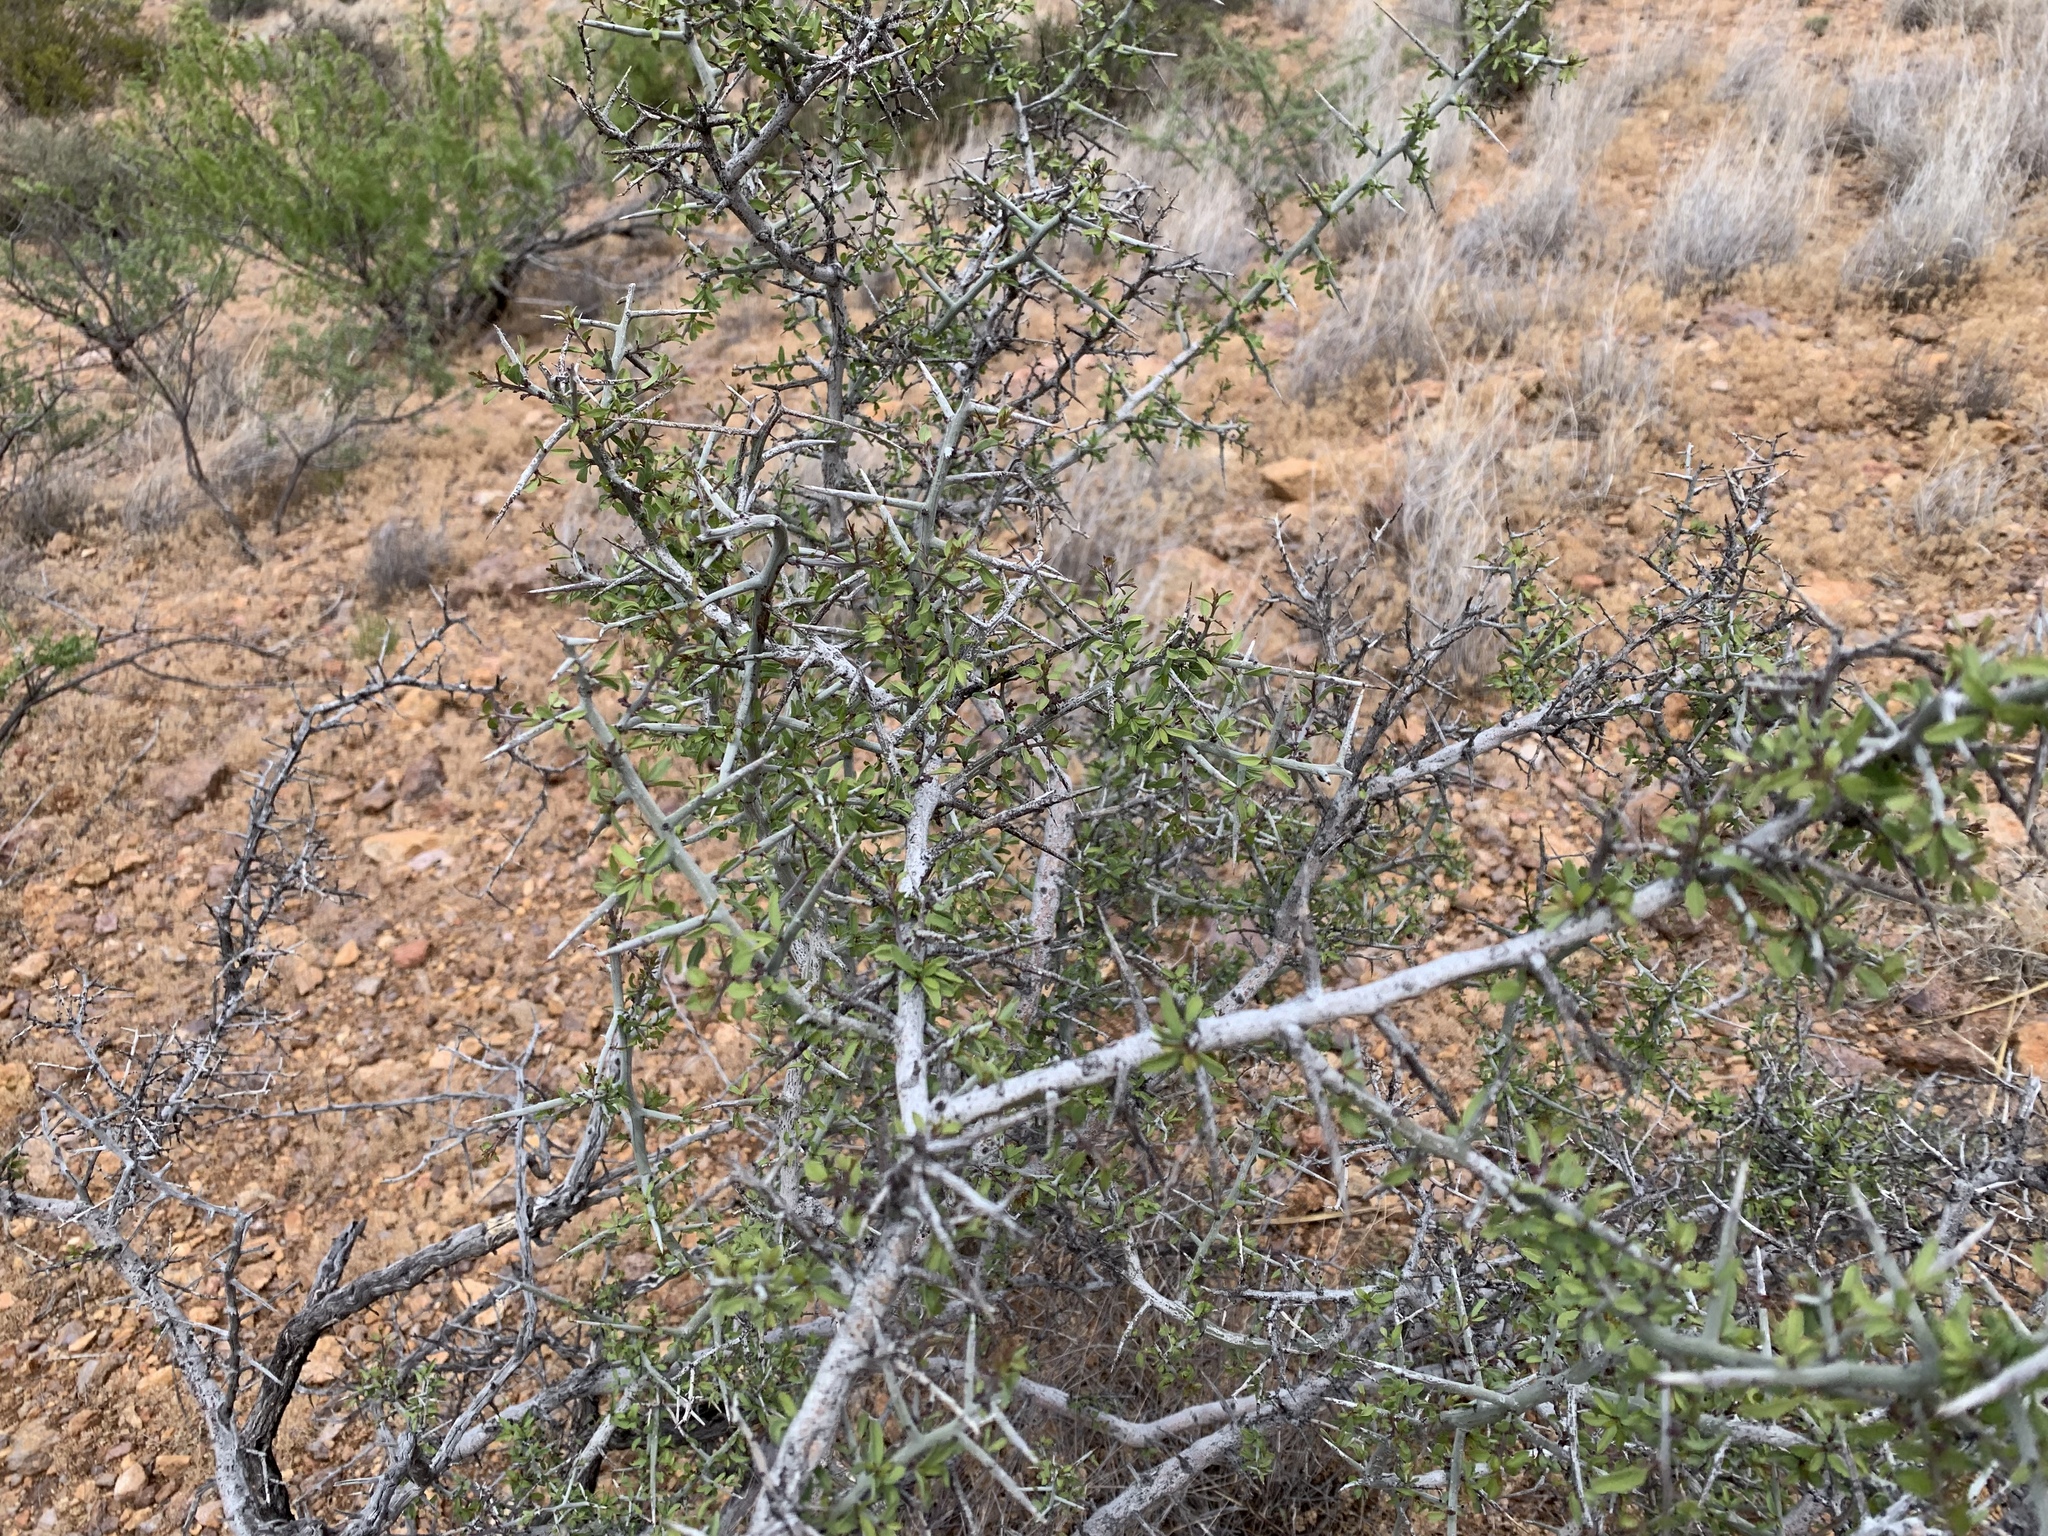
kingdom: Plantae
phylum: Tracheophyta
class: Magnoliopsida
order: Rosales
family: Rhamnaceae
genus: Sarcomphalus
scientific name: Sarcomphalus obtusifolius
